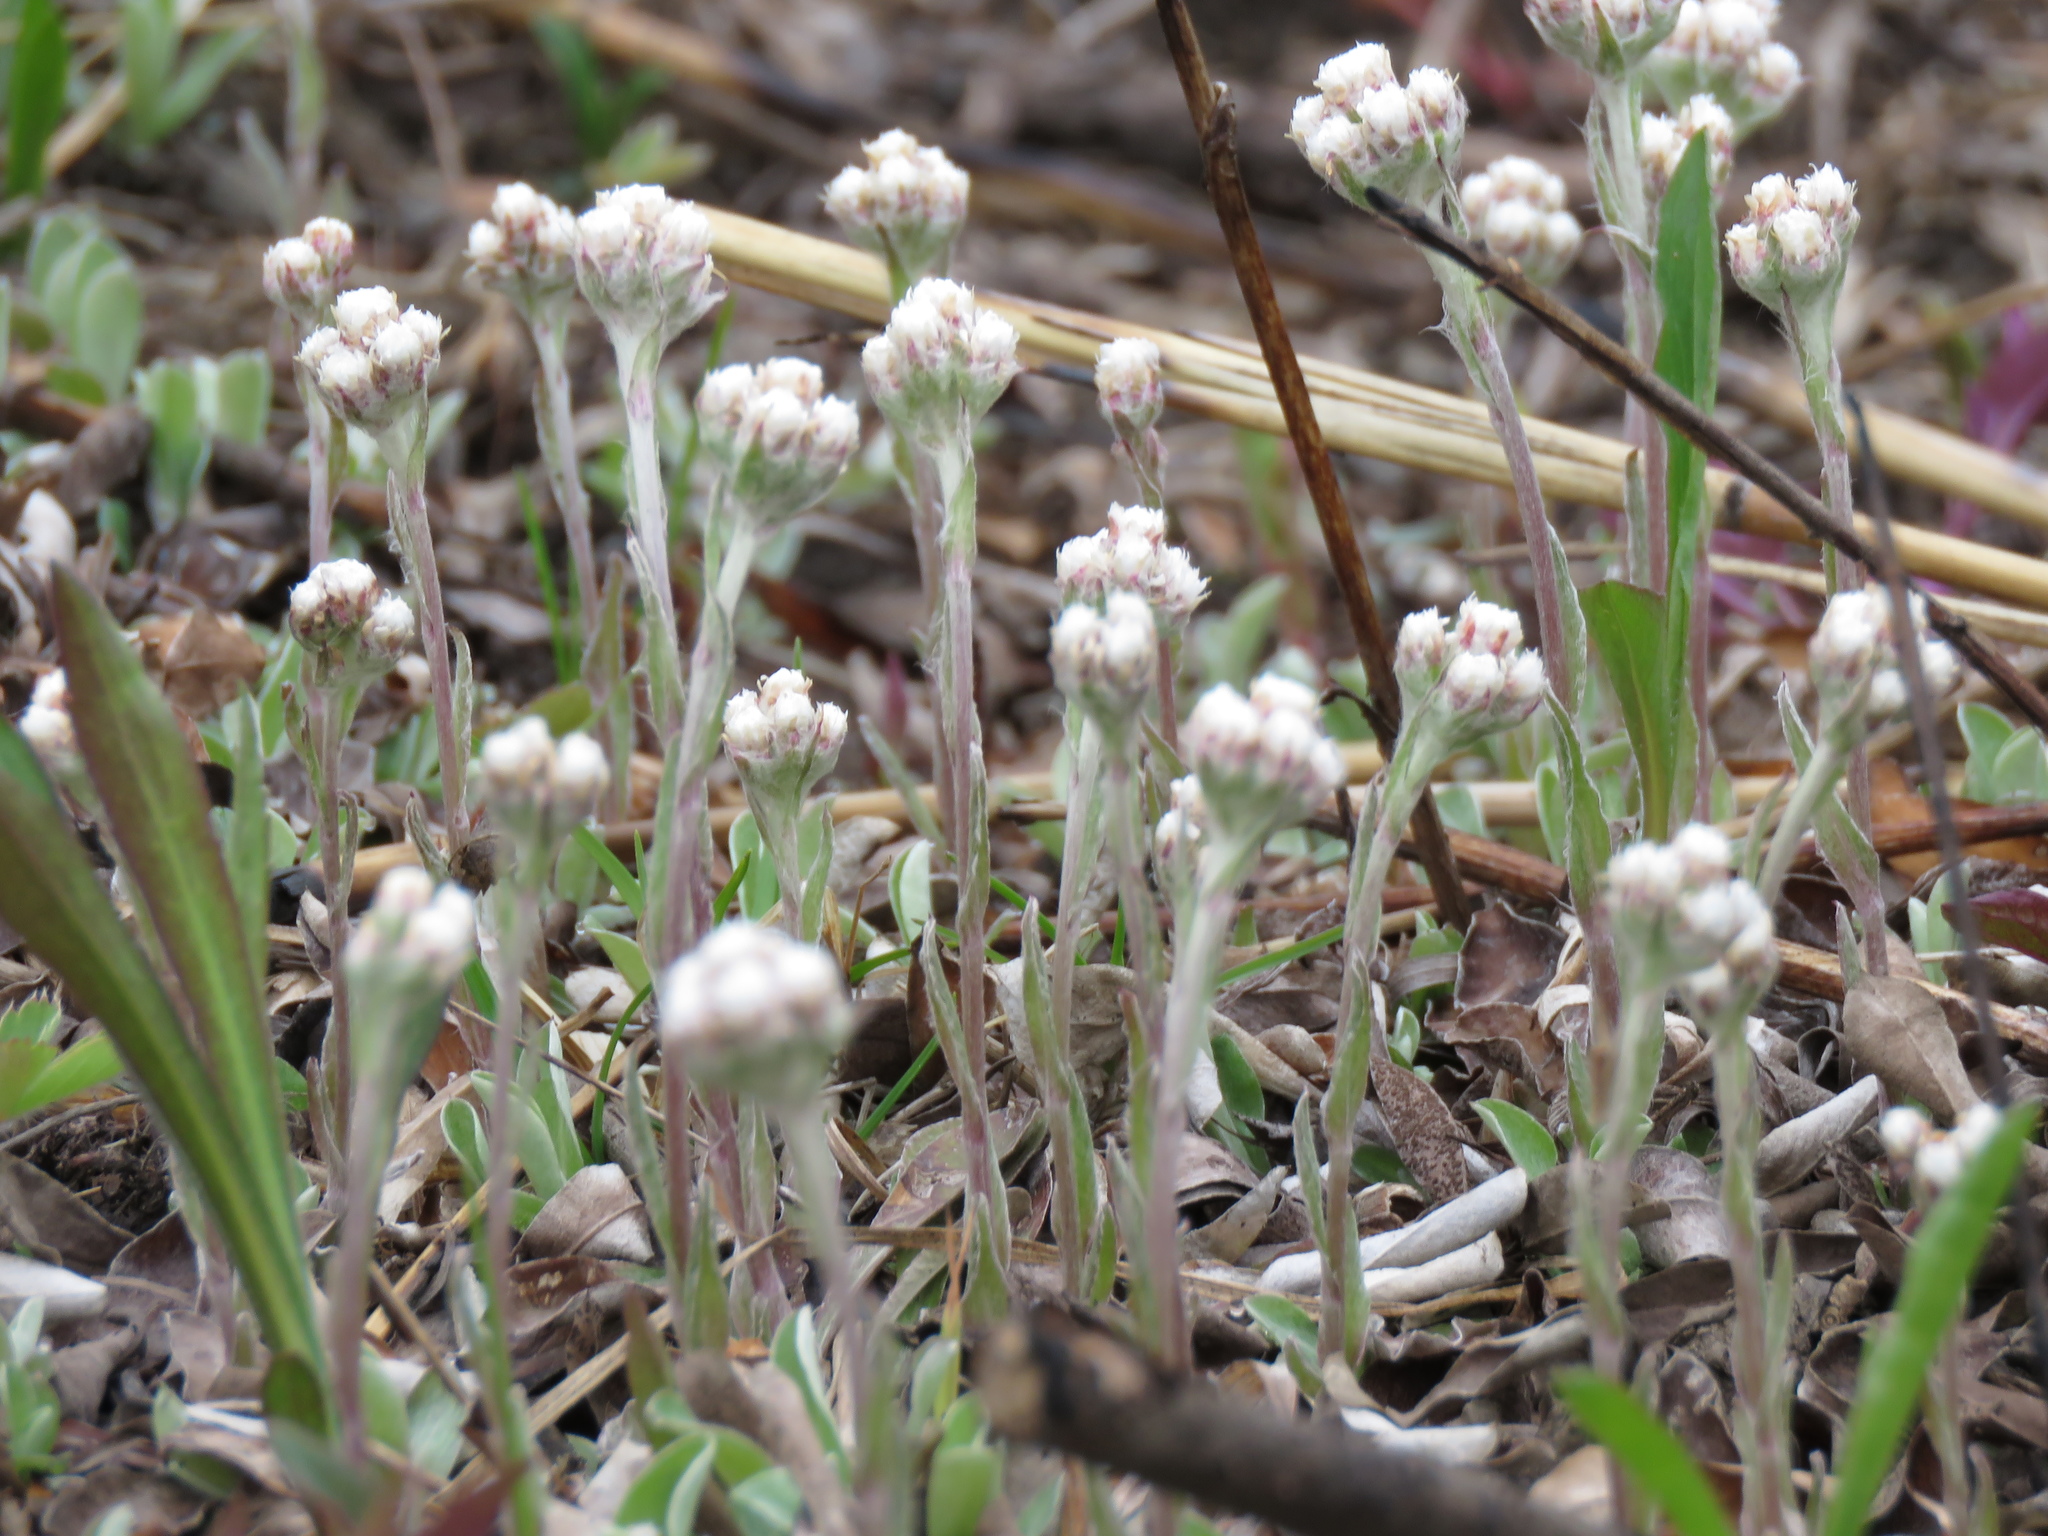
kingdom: Plantae
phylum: Tracheophyta
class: Magnoliopsida
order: Asterales
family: Asteraceae
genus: Antennaria
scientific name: Antennaria neglecta
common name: Field pussytoes
